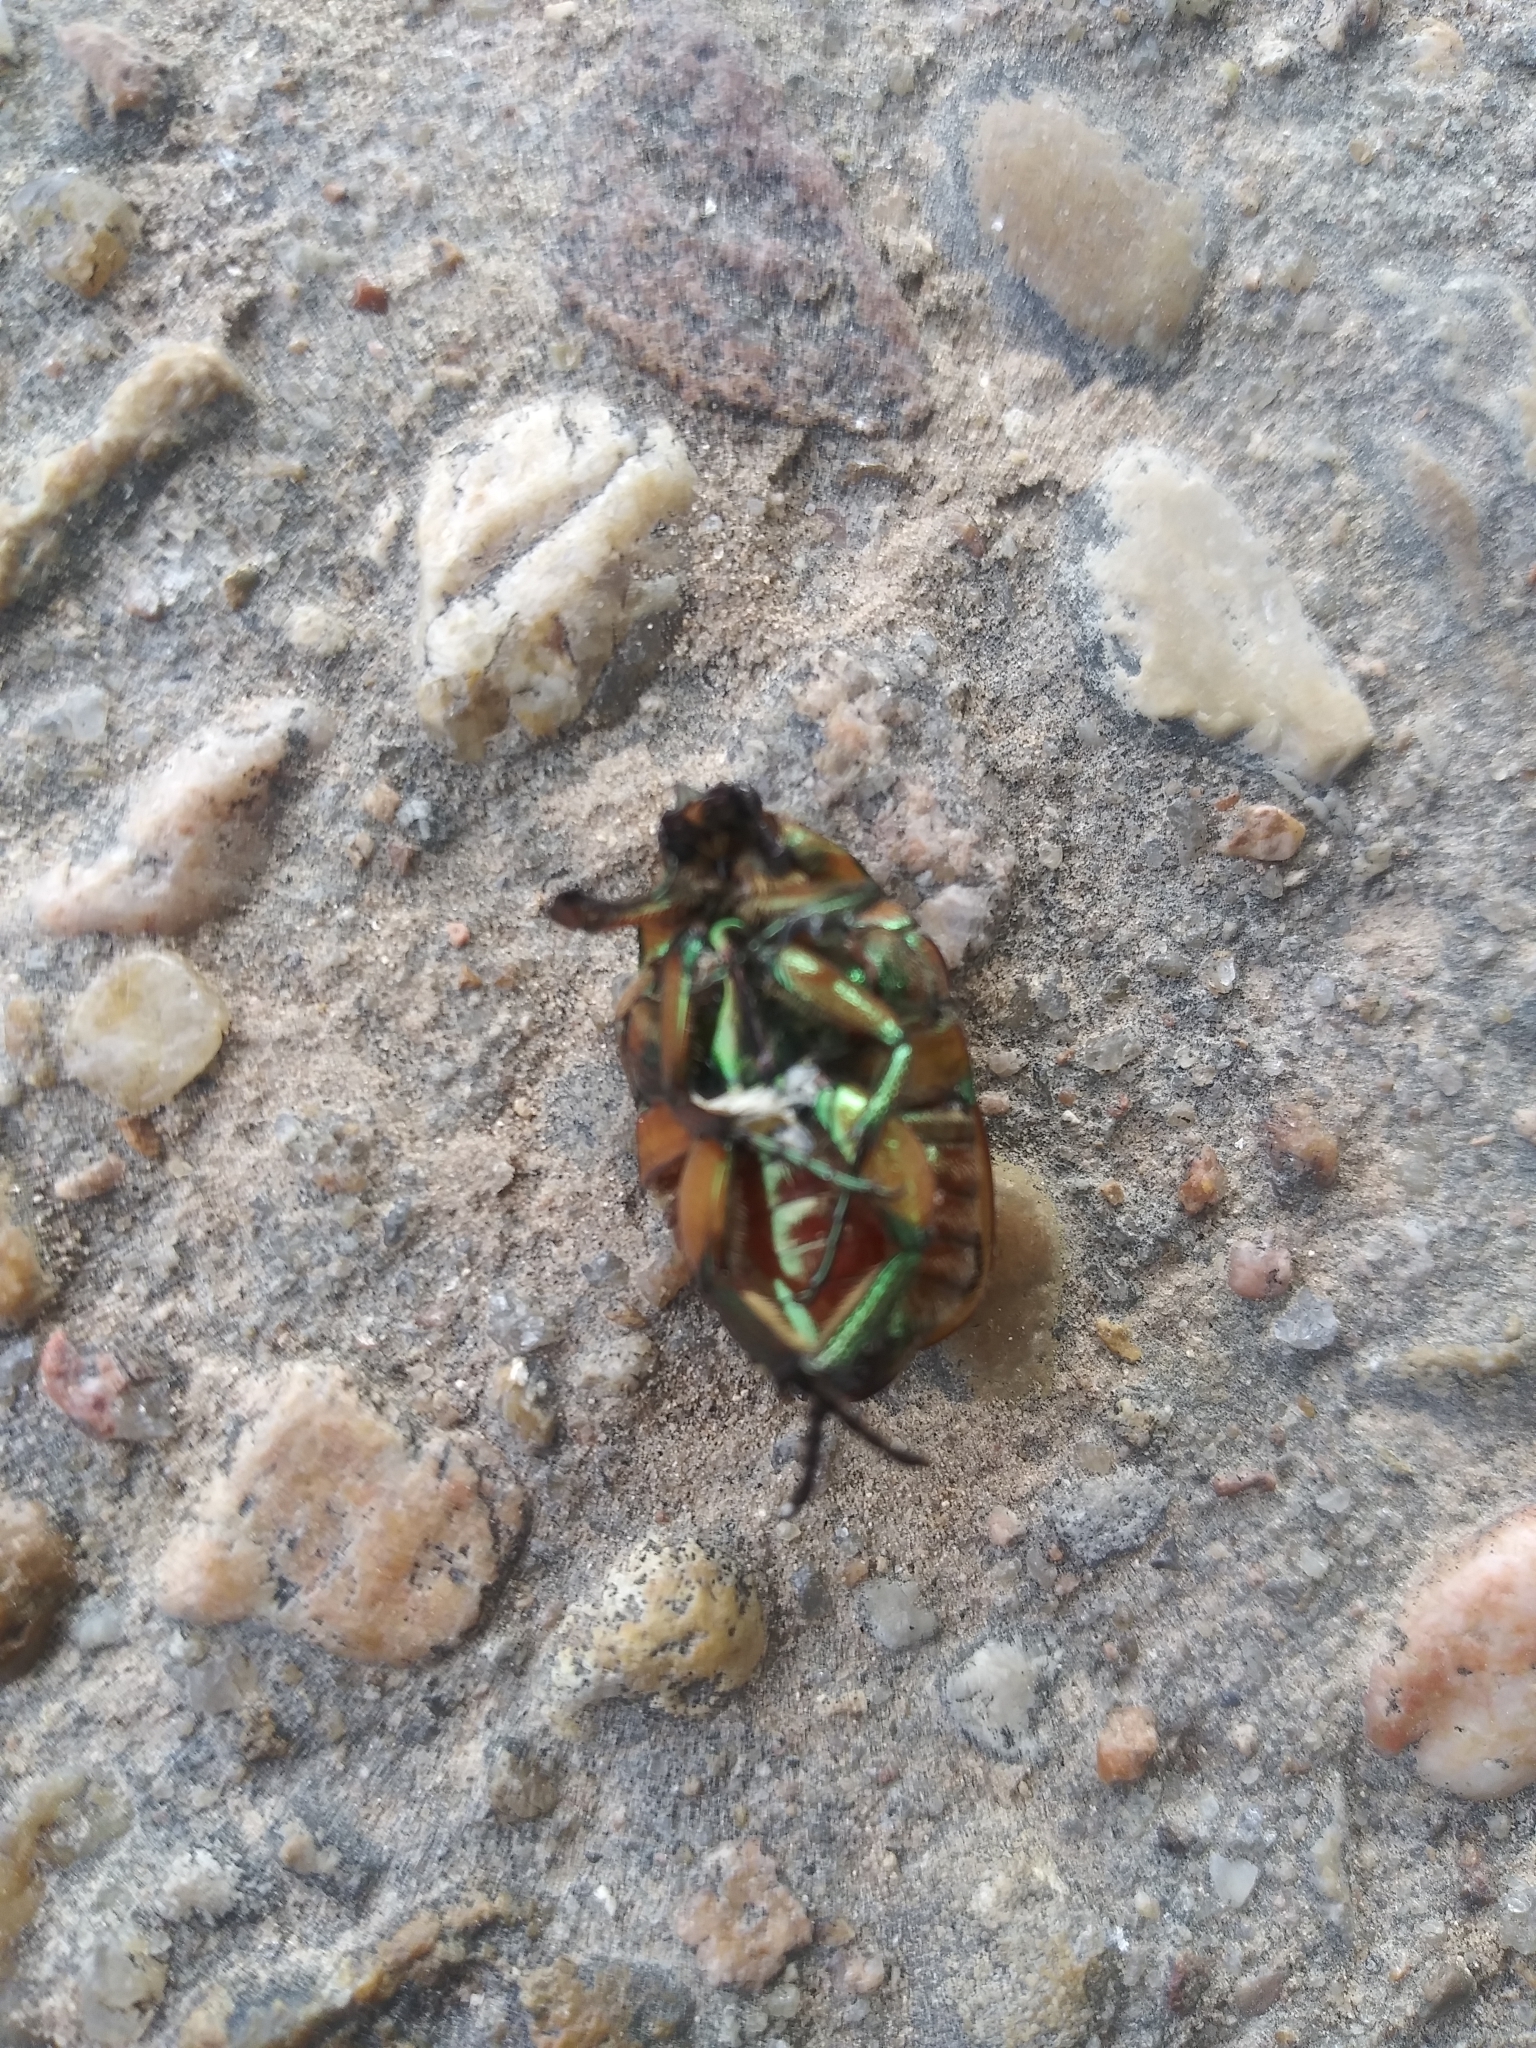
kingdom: Animalia
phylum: Arthropoda
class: Insecta
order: Coleoptera
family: Scarabaeidae
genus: Cotinis
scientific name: Cotinis nitida
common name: Common green june beetle
